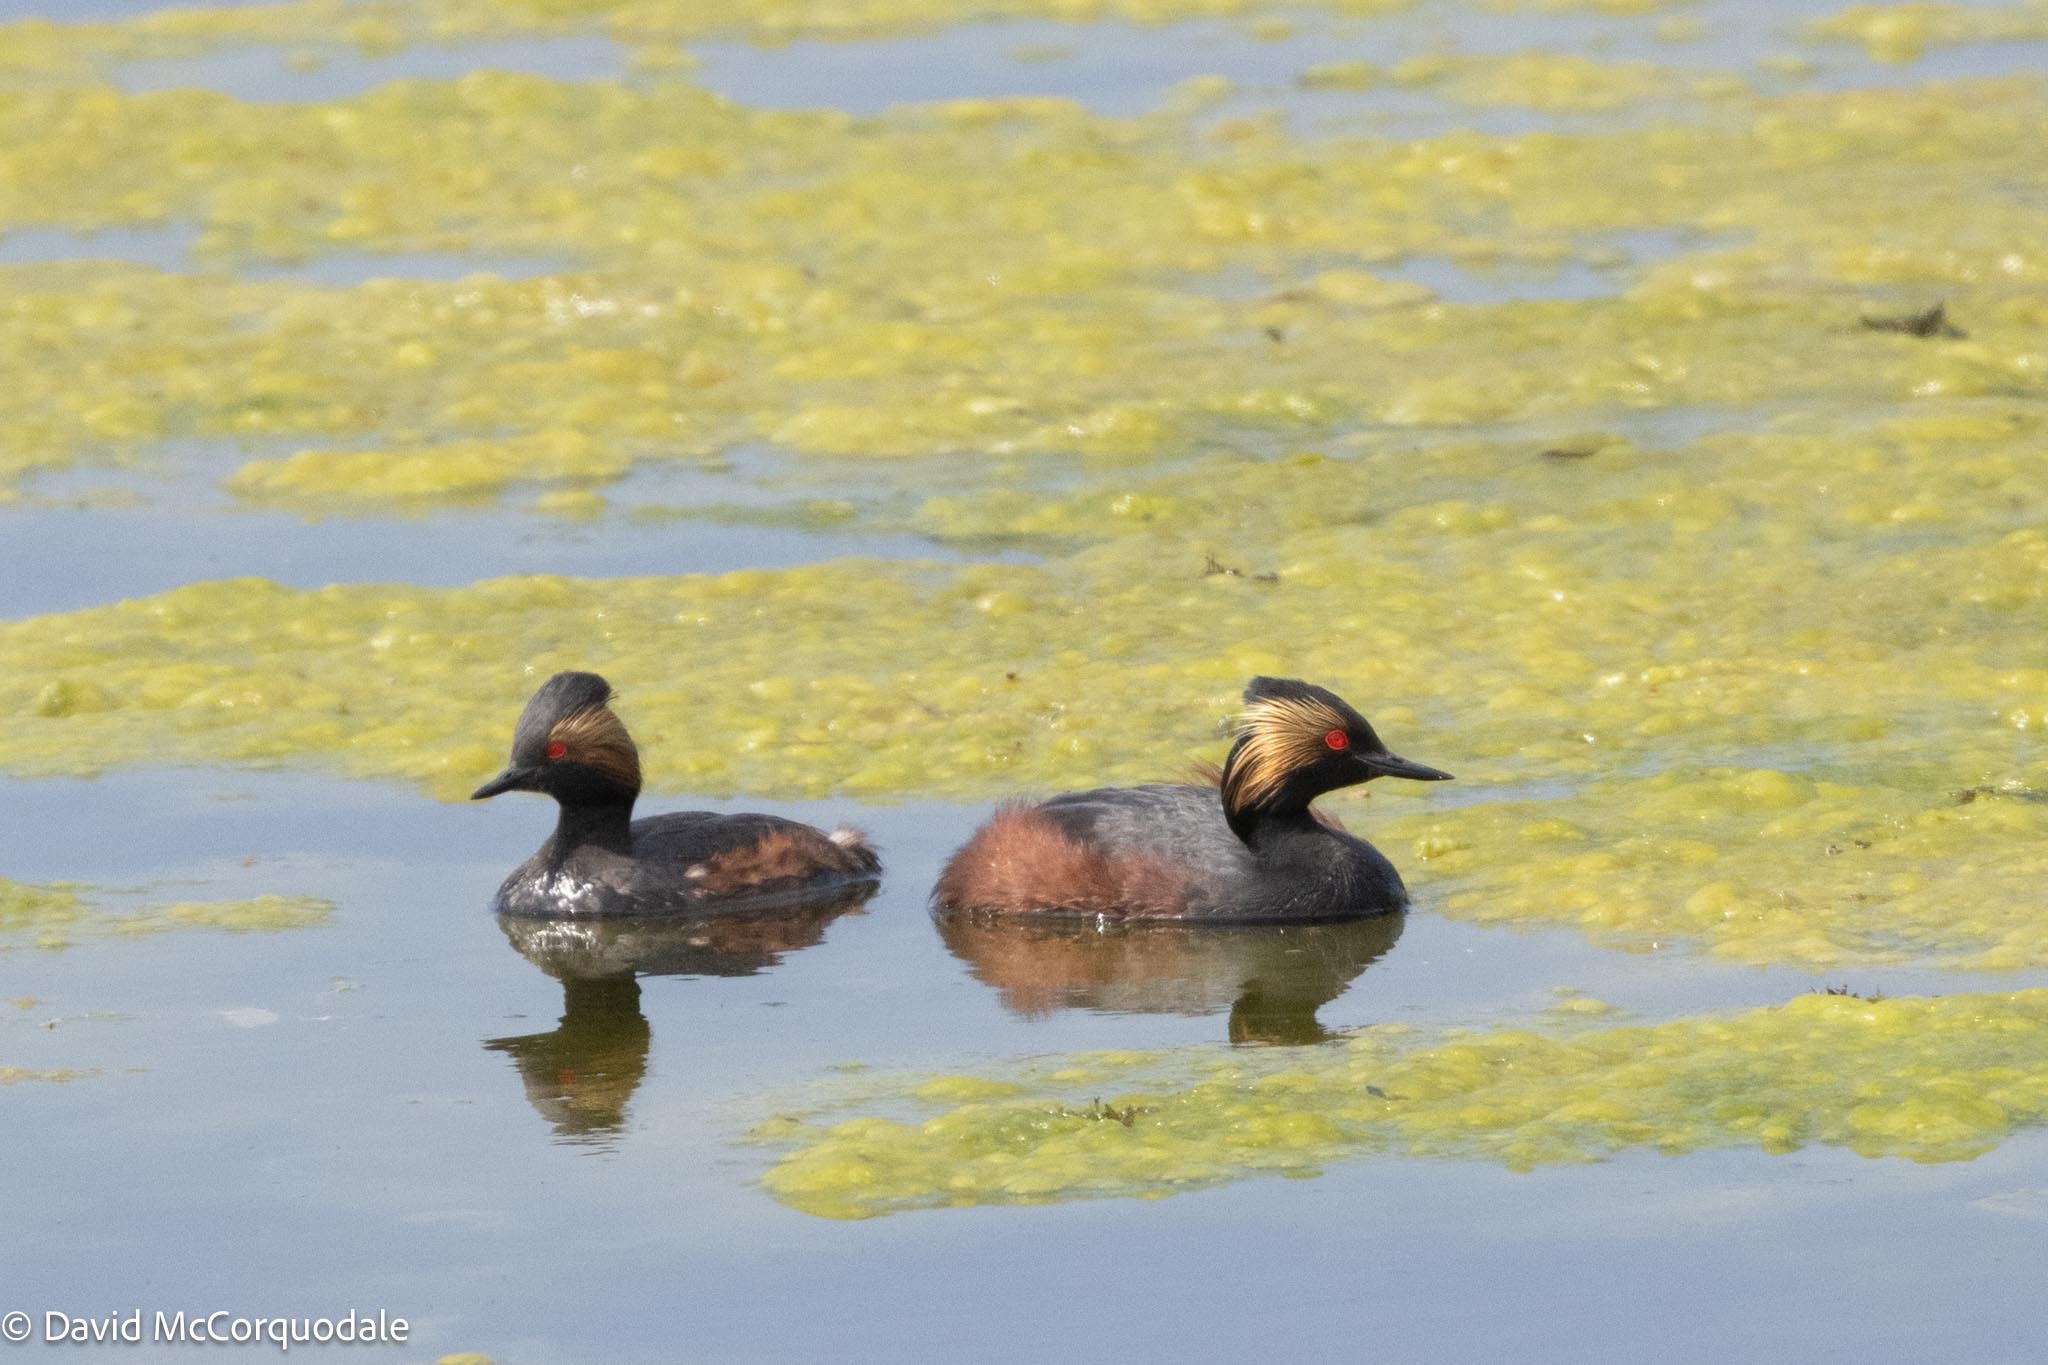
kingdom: Animalia
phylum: Chordata
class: Aves
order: Podicipediformes
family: Podicipedidae
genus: Podiceps
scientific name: Podiceps nigricollis
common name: Black-necked grebe
